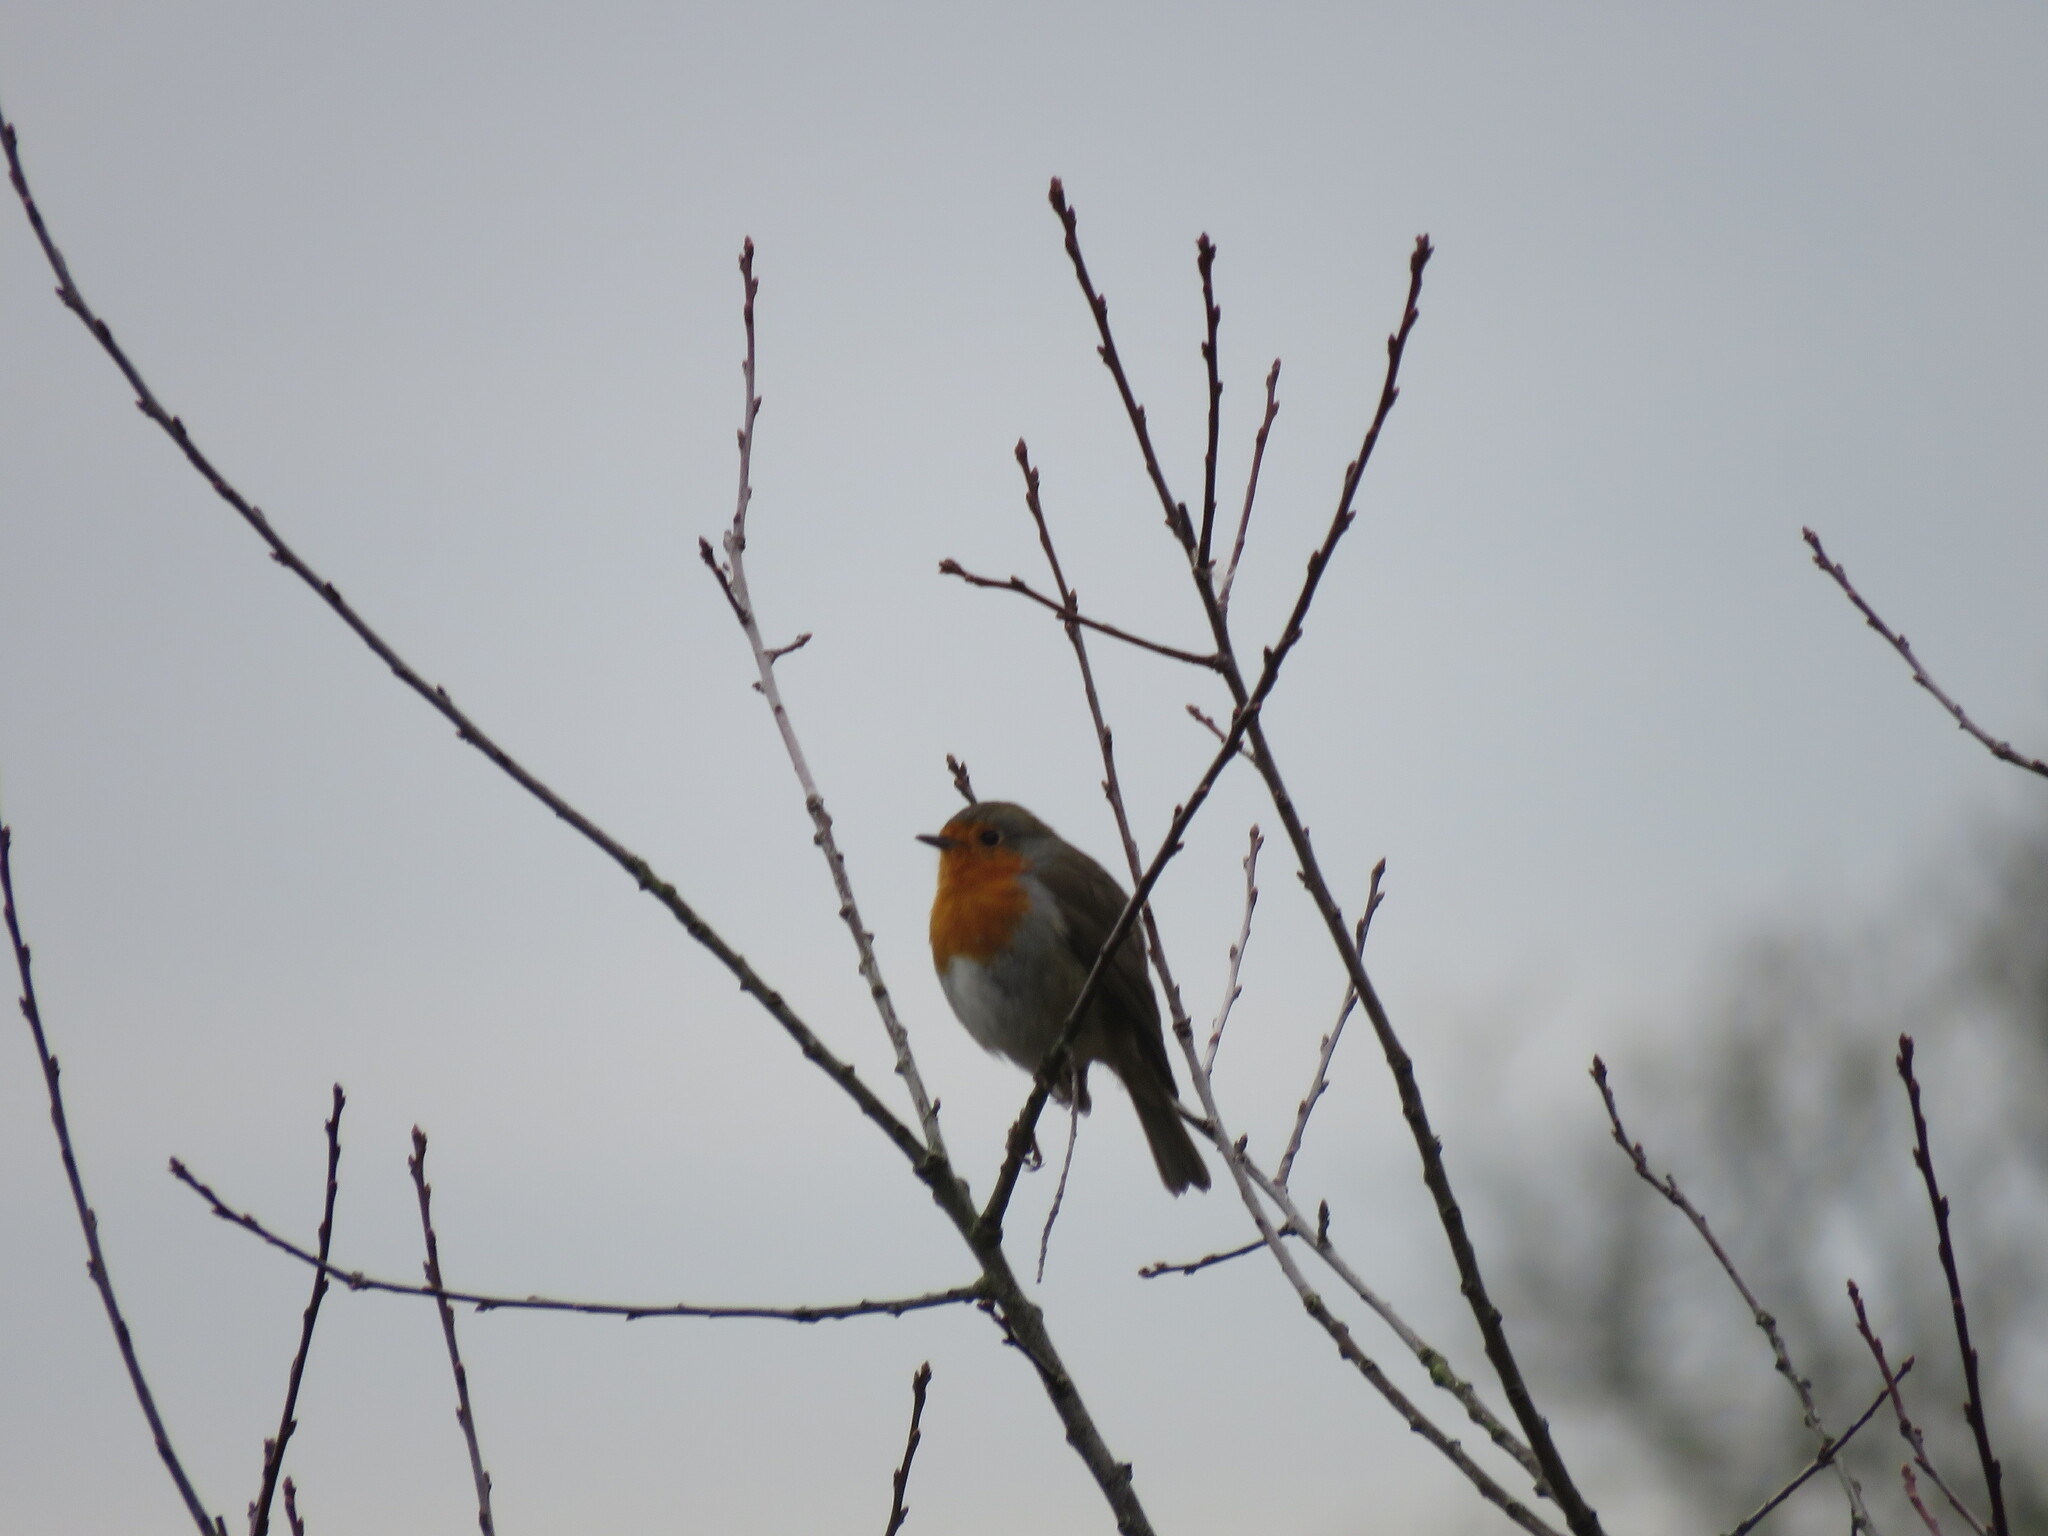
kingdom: Animalia
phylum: Chordata
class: Aves
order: Passeriformes
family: Muscicapidae
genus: Erithacus
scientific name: Erithacus rubecula
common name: European robin
